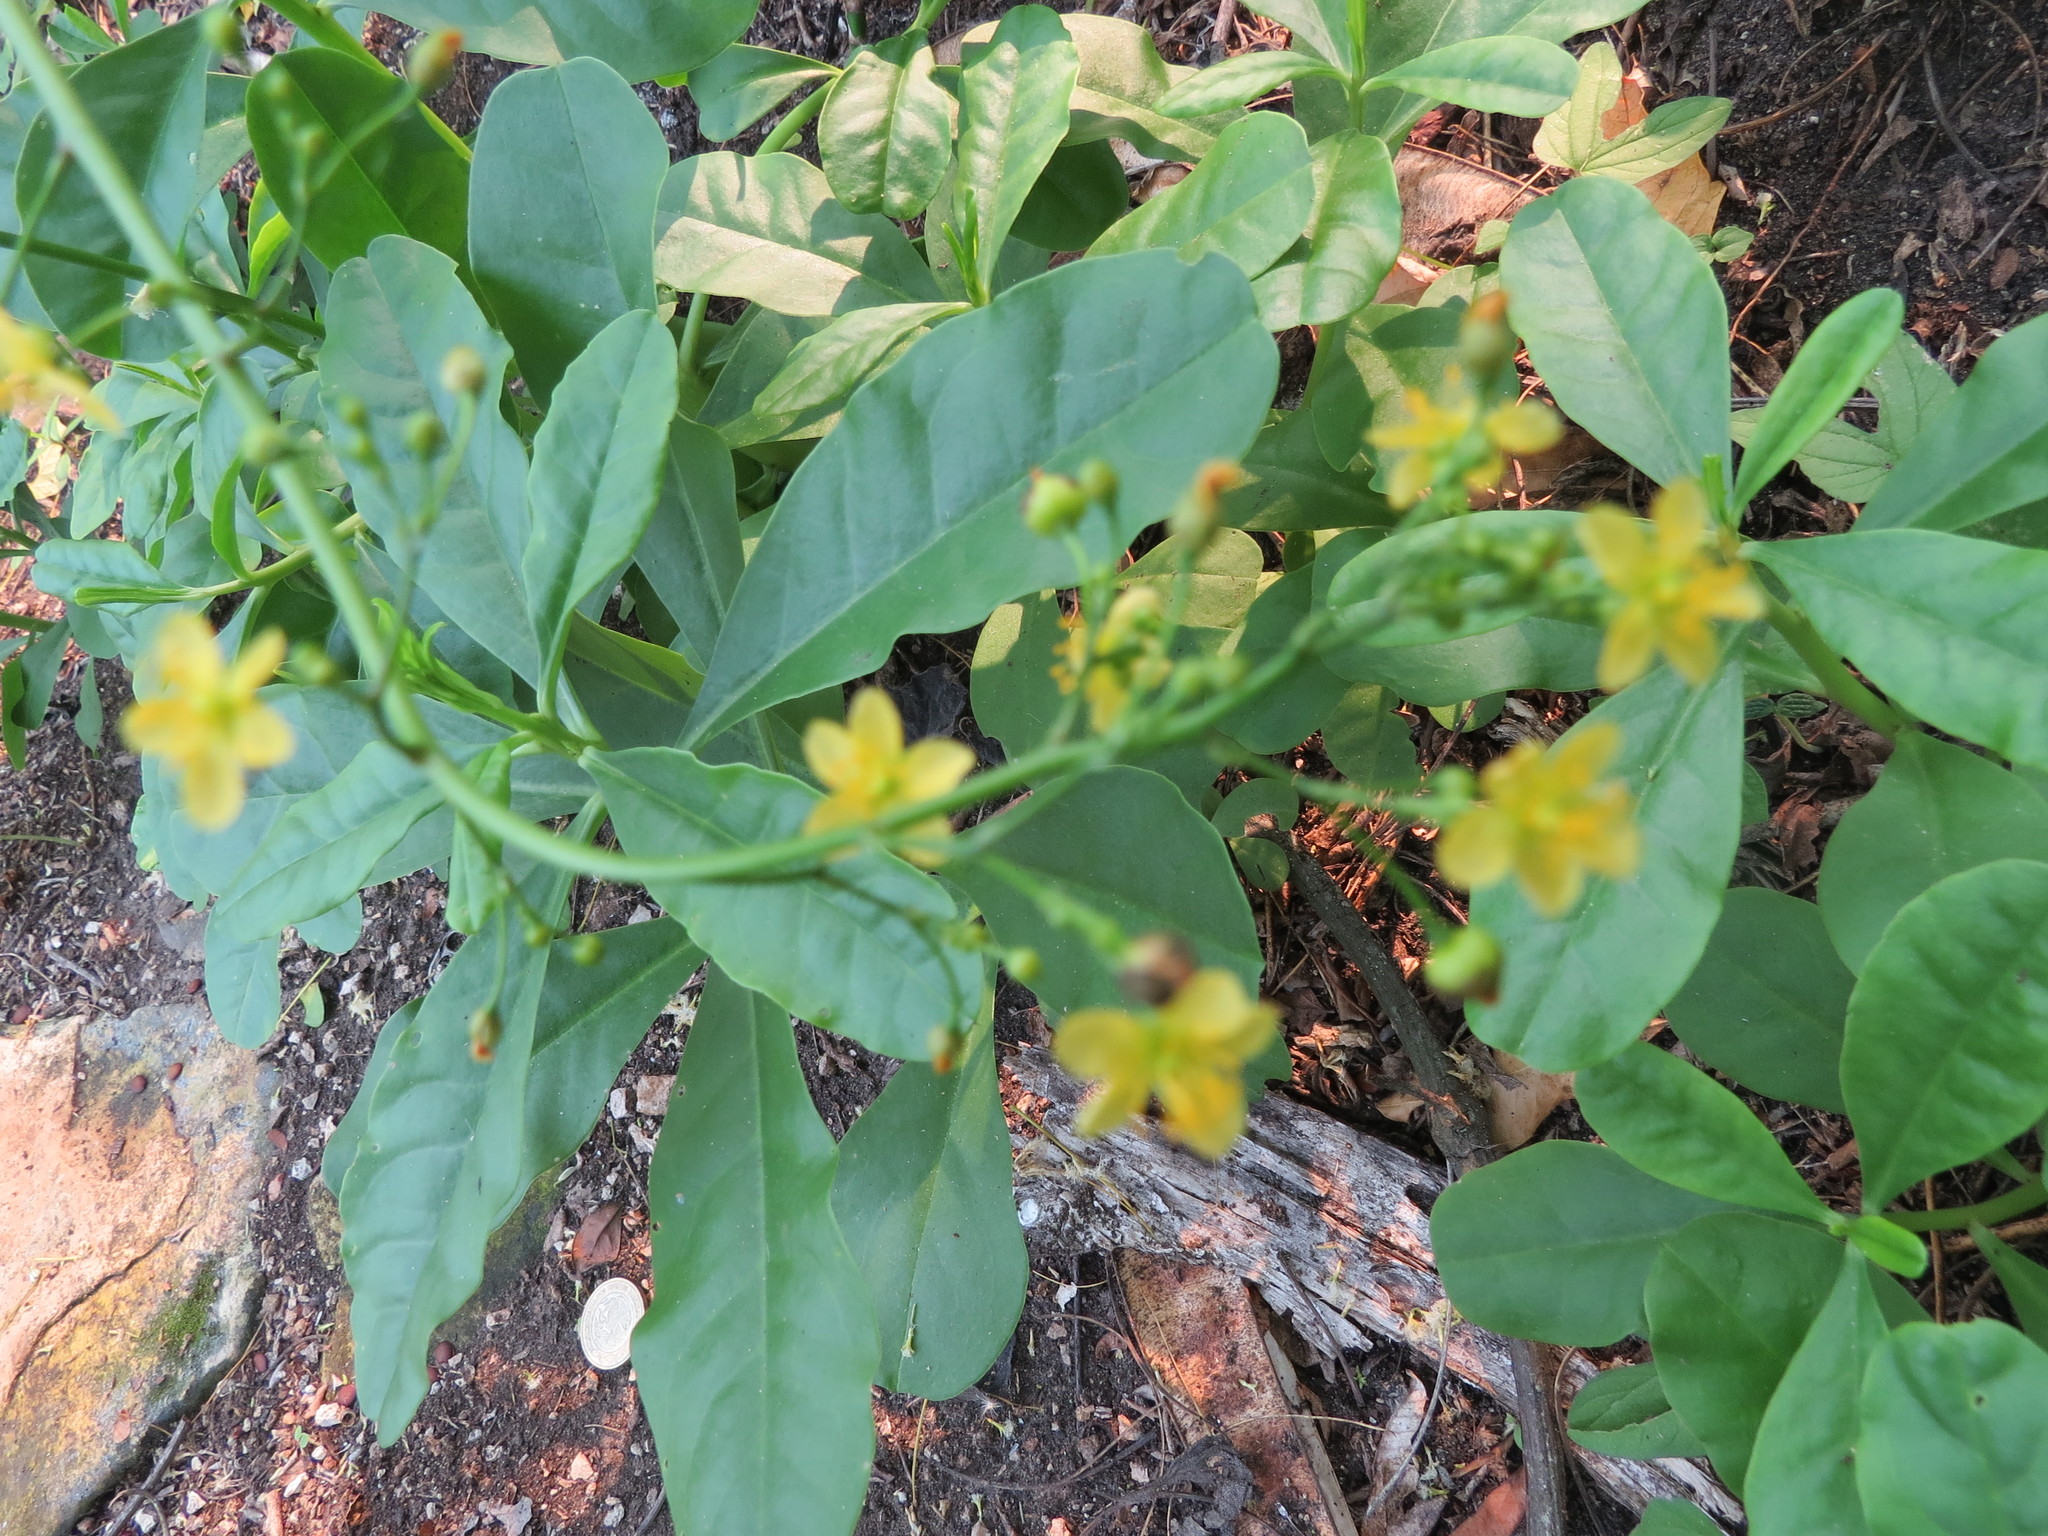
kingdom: Plantae
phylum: Tracheophyta
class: Magnoliopsida
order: Caryophyllales
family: Talinaceae
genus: Talinum
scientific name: Talinum paniculatum
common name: Jewels of opar
